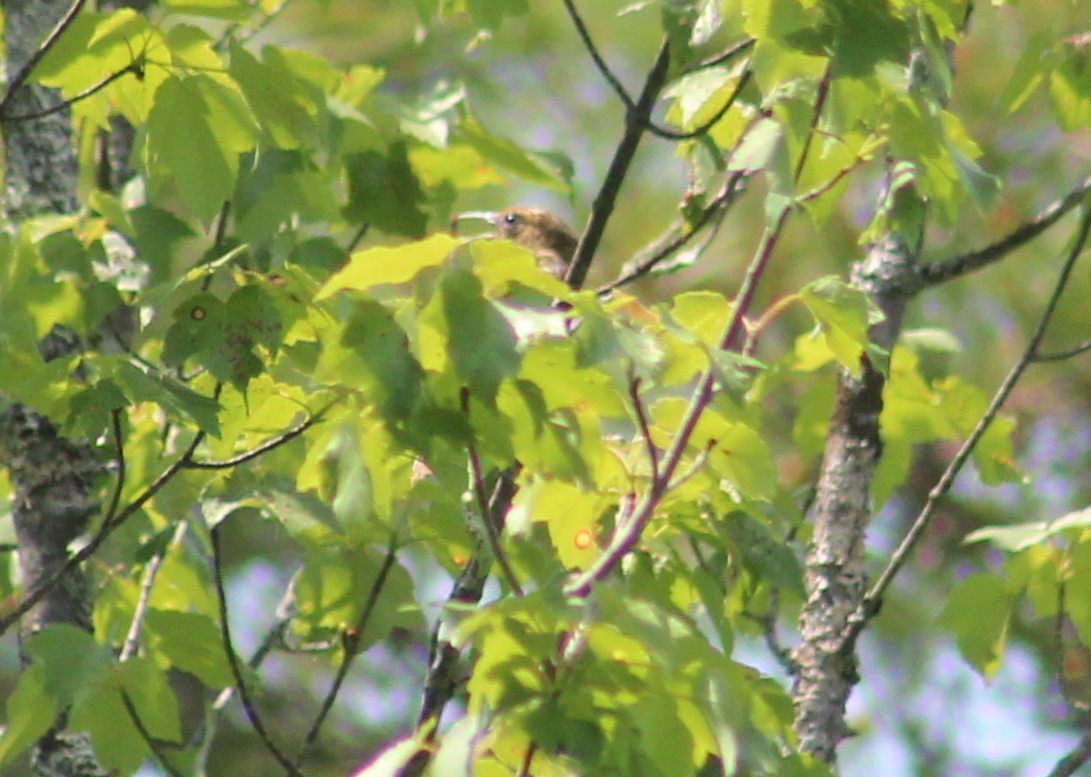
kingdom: Animalia
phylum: Chordata
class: Aves
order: Passeriformes
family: Icteridae
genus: Icterus
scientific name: Icterus galbula
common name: Baltimore oriole
